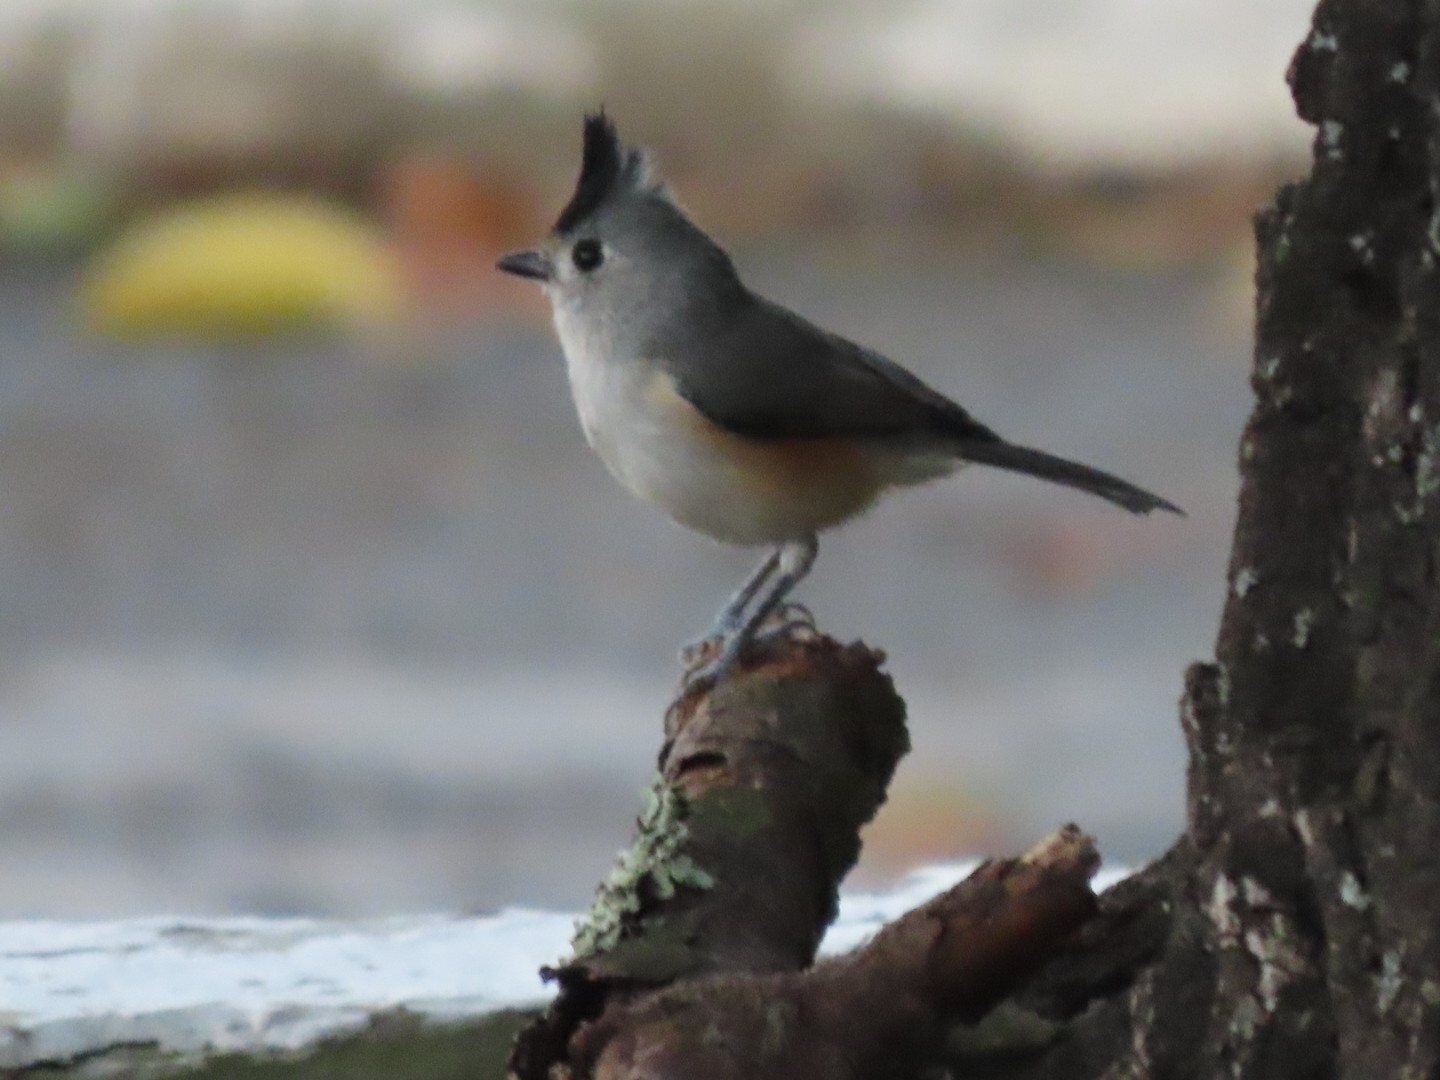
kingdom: Animalia
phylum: Chordata
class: Aves
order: Passeriformes
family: Paridae
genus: Baeolophus
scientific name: Baeolophus atricristatus
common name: Black-crested titmouse
